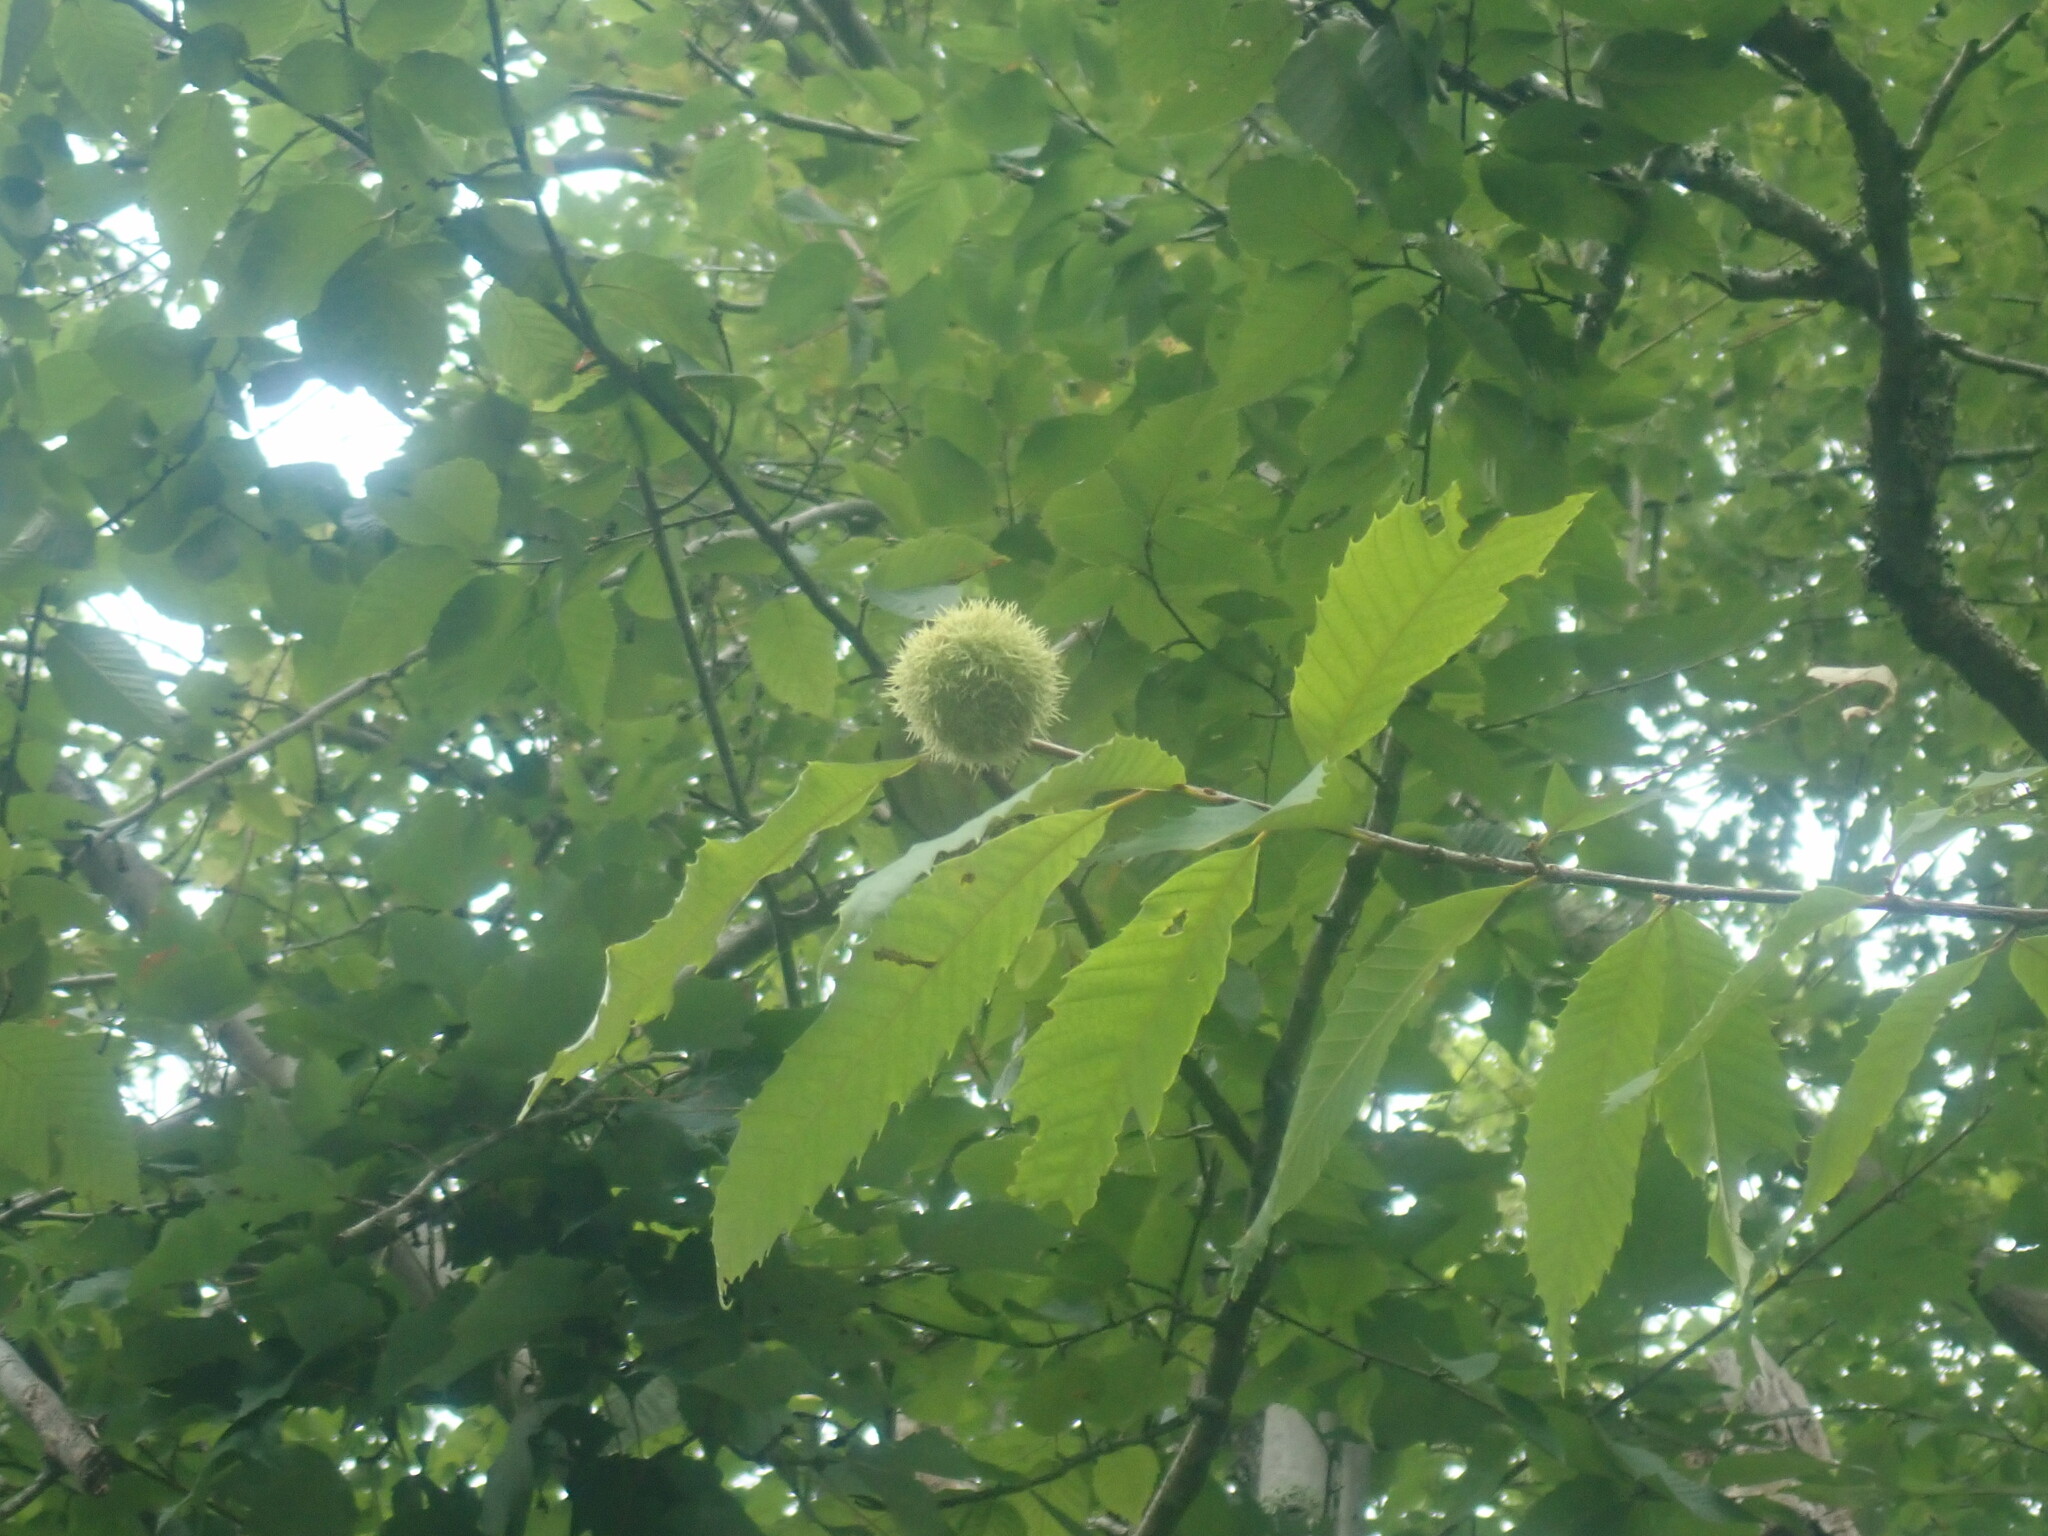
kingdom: Plantae
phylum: Tracheophyta
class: Magnoliopsida
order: Fagales
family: Fagaceae
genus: Castanea
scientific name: Castanea dentata
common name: American chestnut
